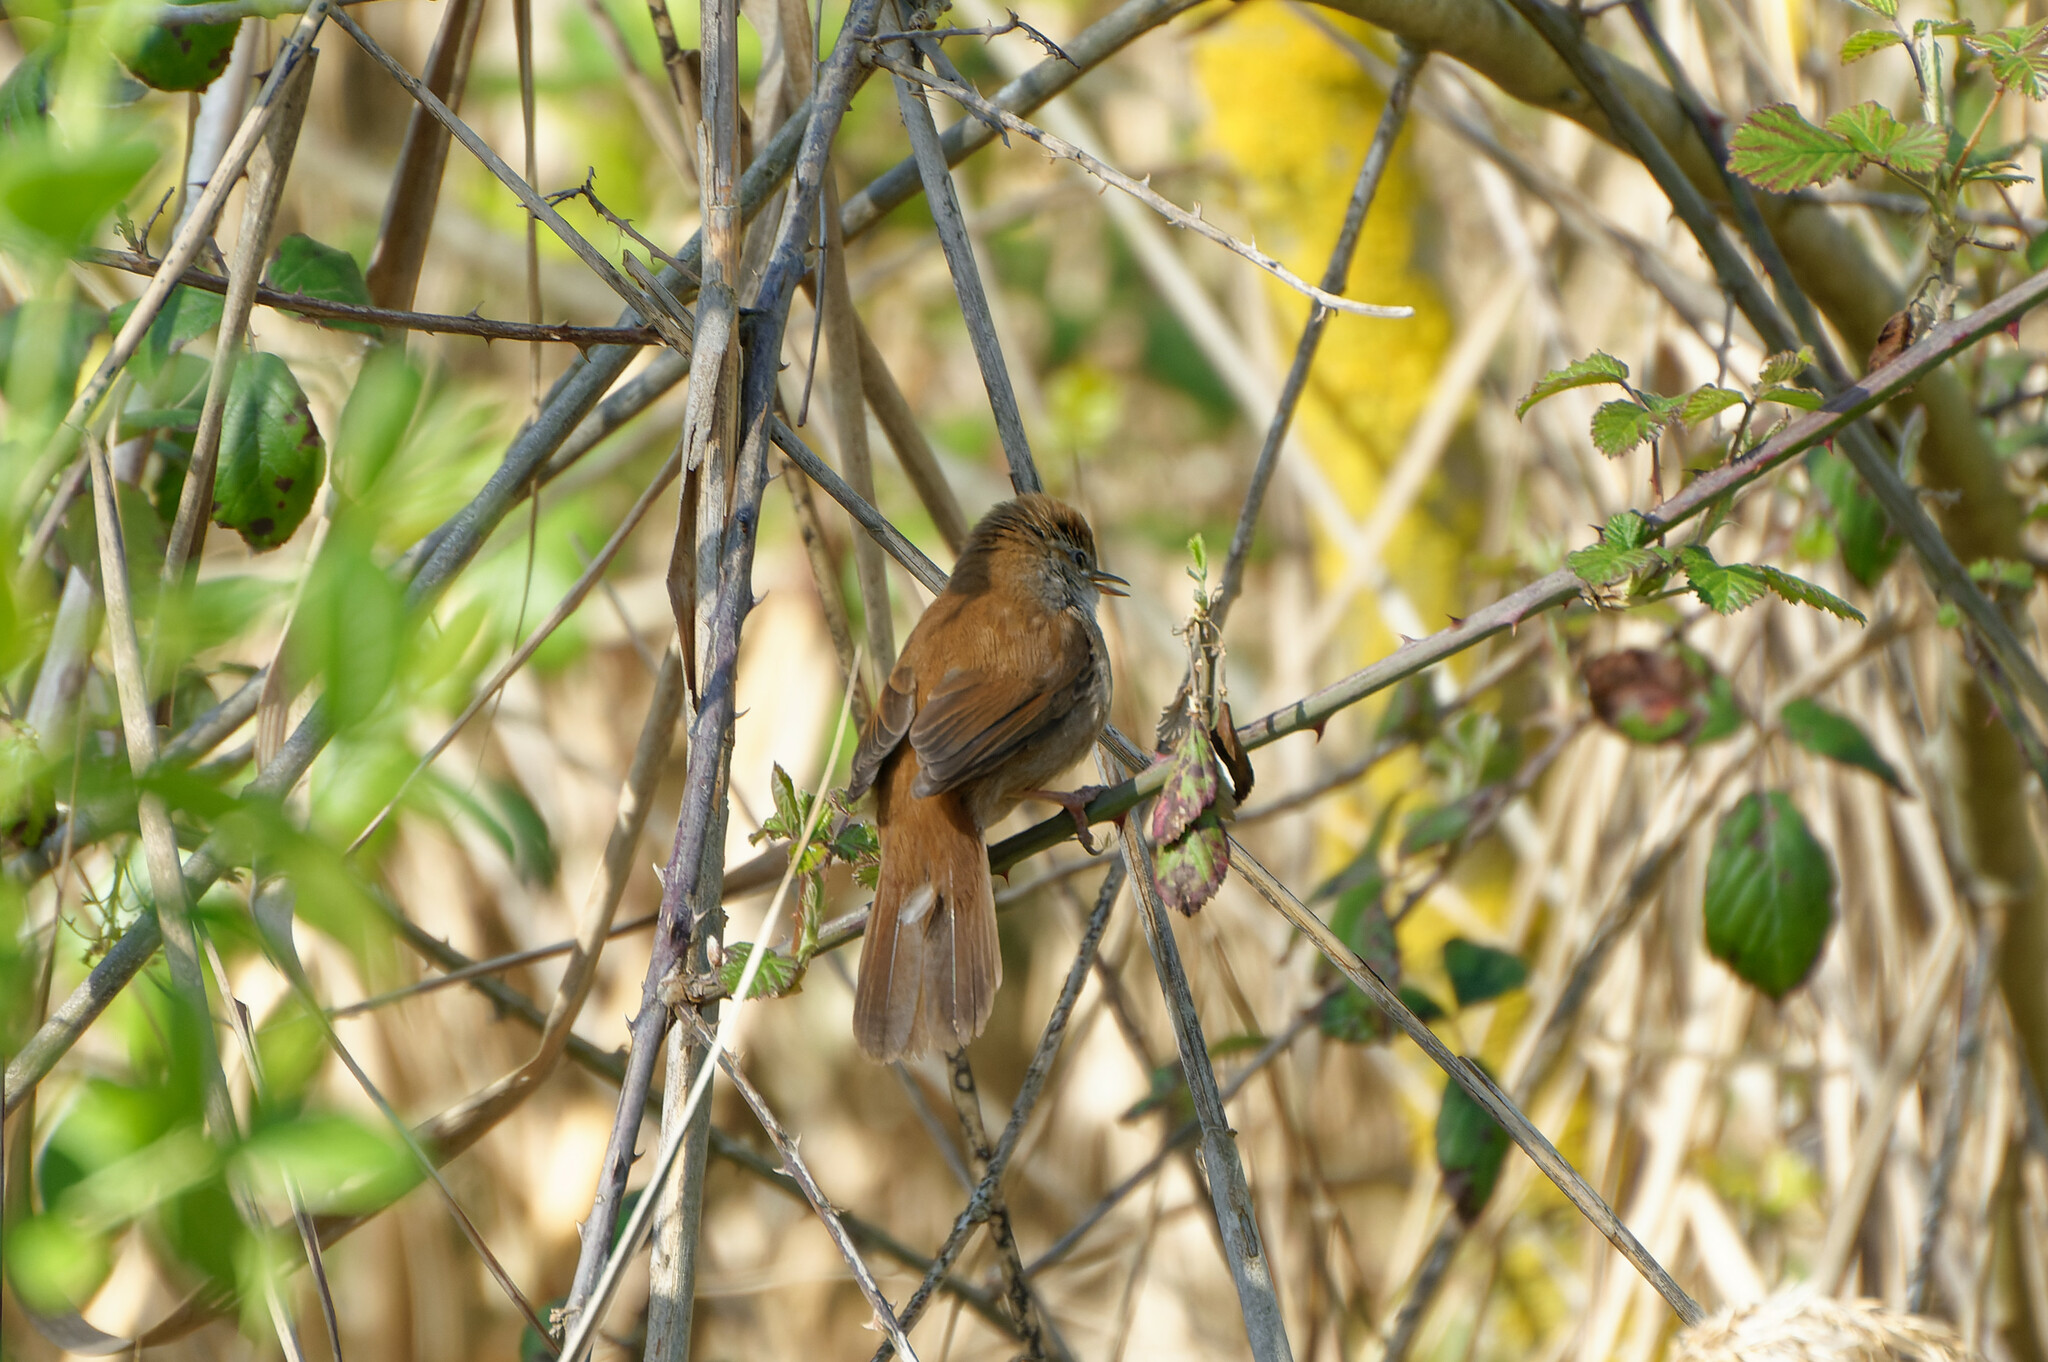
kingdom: Animalia
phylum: Chordata
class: Aves
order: Passeriformes
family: Cettiidae
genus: Cettia
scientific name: Cettia cetti
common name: Cetti's warbler
